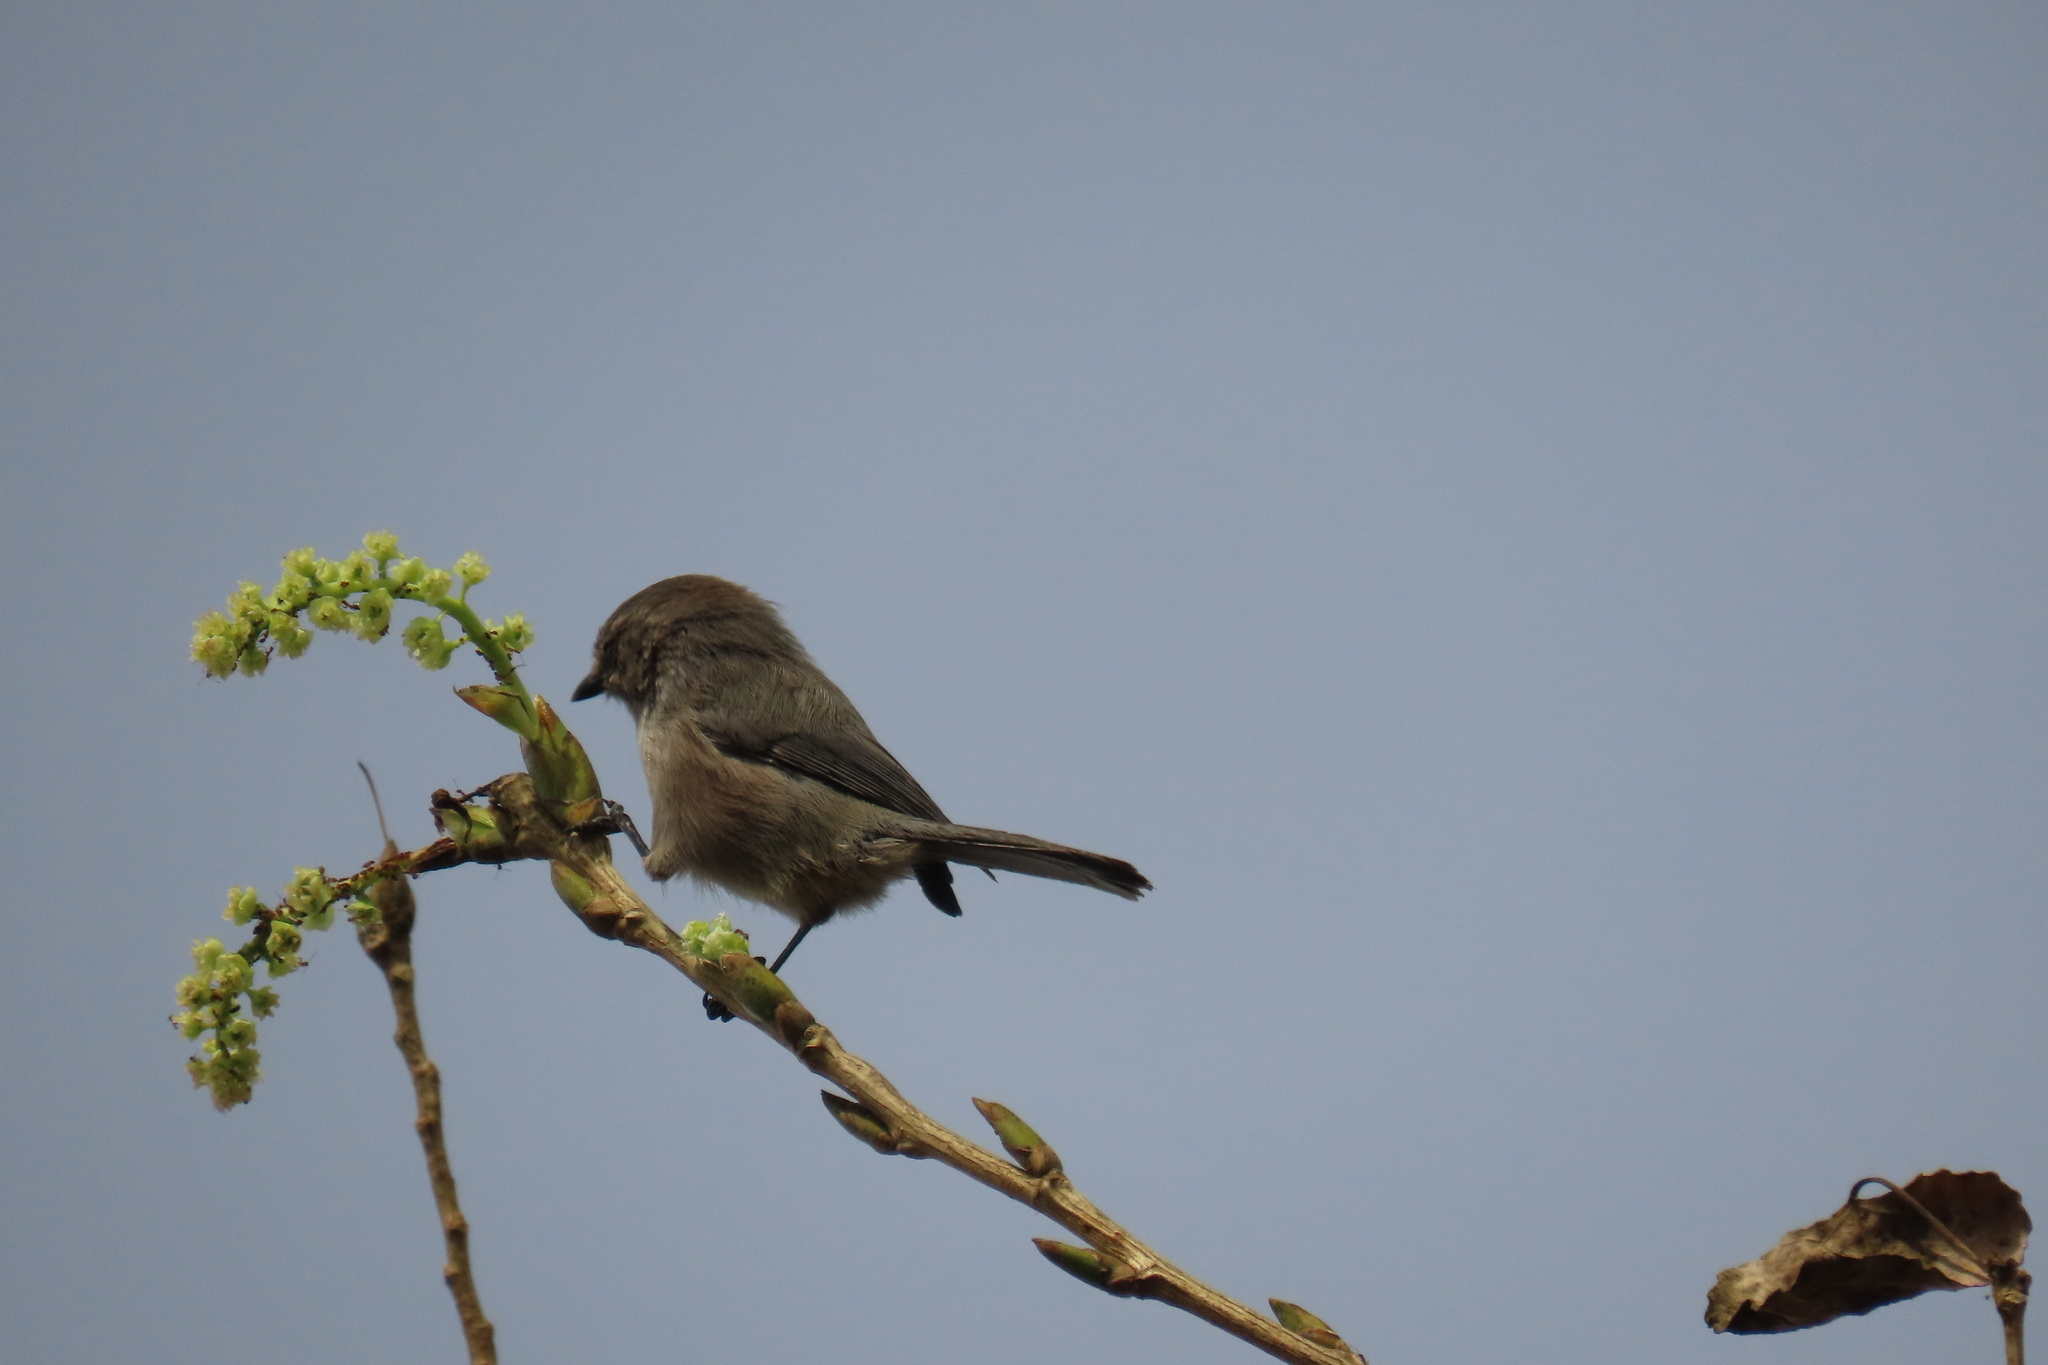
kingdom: Animalia
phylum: Chordata
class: Aves
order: Passeriformes
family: Aegithalidae
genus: Psaltriparus
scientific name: Psaltriparus minimus
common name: American bushtit
